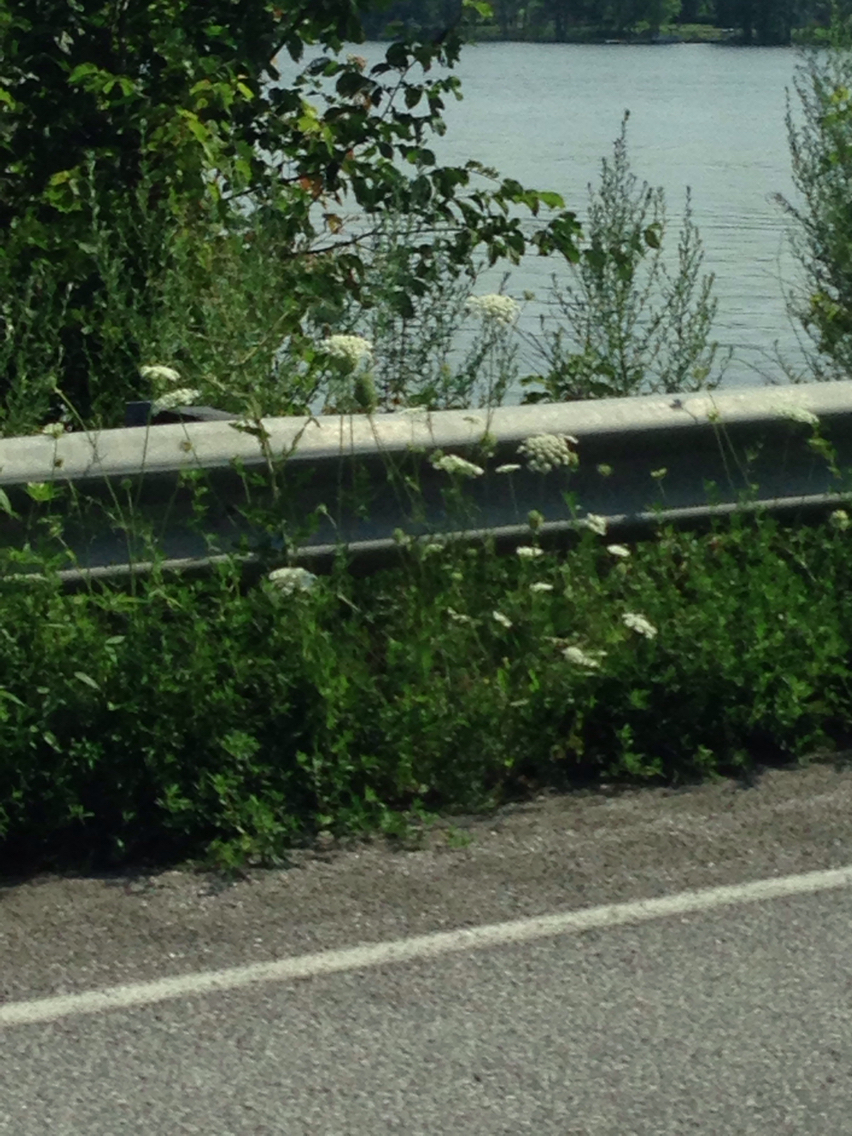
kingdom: Plantae
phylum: Tracheophyta
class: Magnoliopsida
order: Apiales
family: Apiaceae
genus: Daucus
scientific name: Daucus carota
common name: Wild carrot
